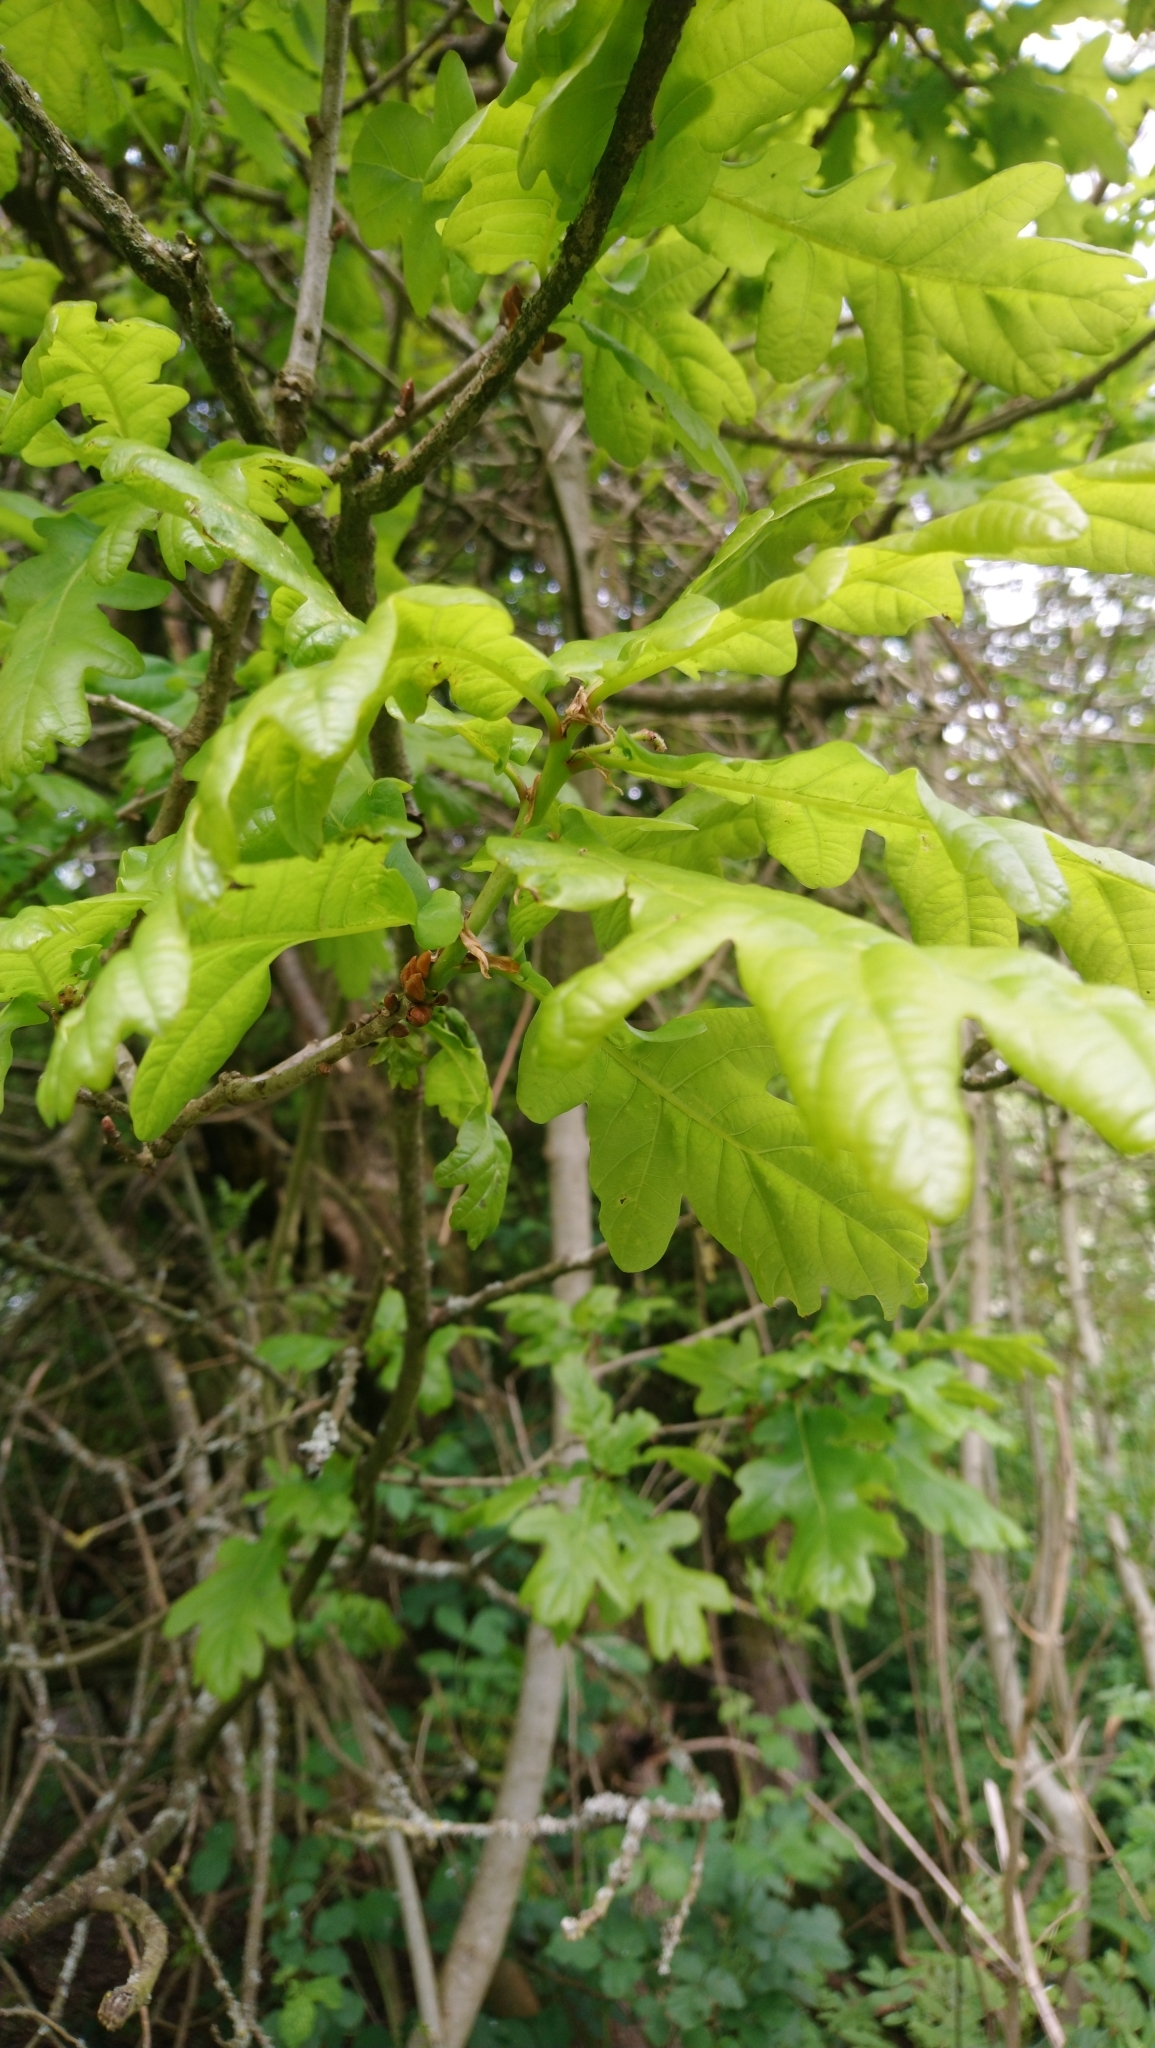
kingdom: Plantae
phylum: Tracheophyta
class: Magnoliopsida
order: Fagales
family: Fagaceae
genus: Quercus
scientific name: Quercus robur
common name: Pedunculate oak
